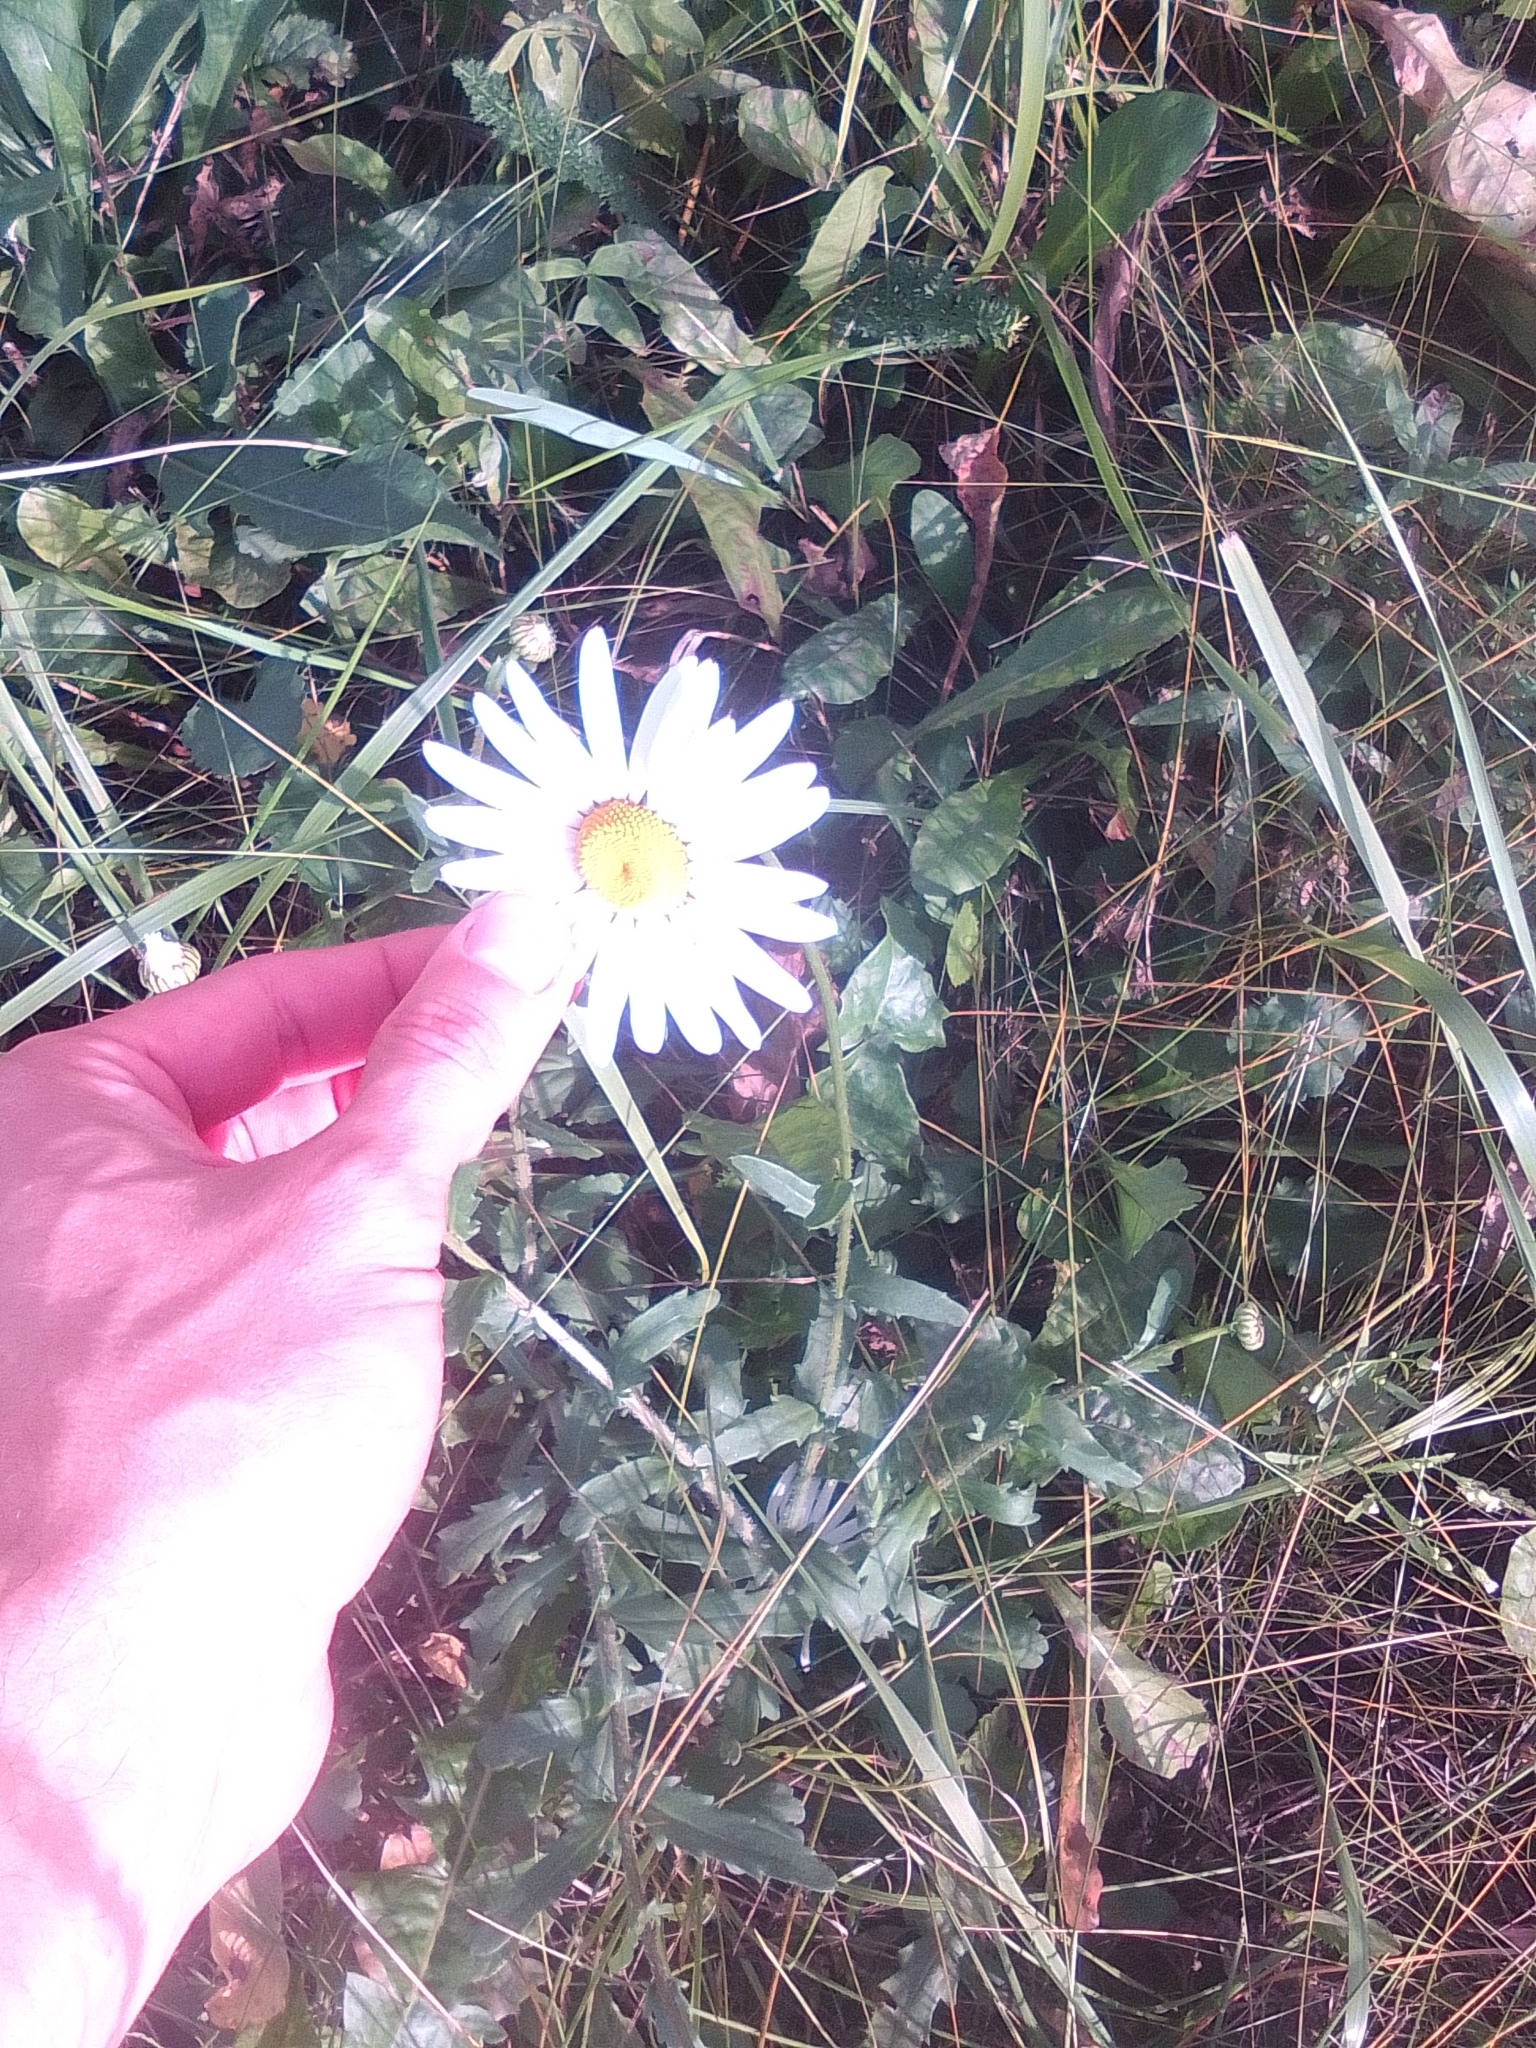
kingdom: Plantae
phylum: Tracheophyta
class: Magnoliopsida
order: Asterales
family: Asteraceae
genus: Leucanthemum
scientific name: Leucanthemum vulgare
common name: Oxeye daisy
